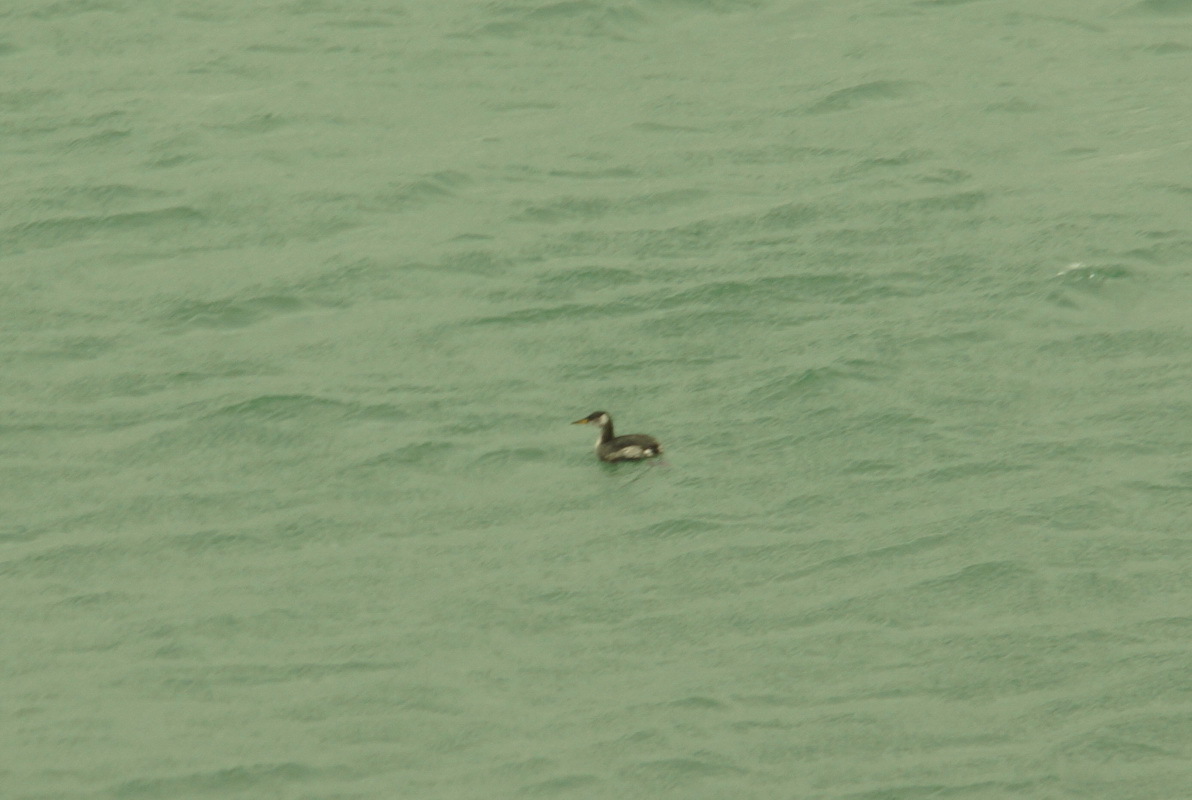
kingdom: Animalia
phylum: Chordata
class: Aves
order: Podicipediformes
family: Podicipedidae
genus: Podiceps
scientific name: Podiceps grisegena
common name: Red-necked grebe
